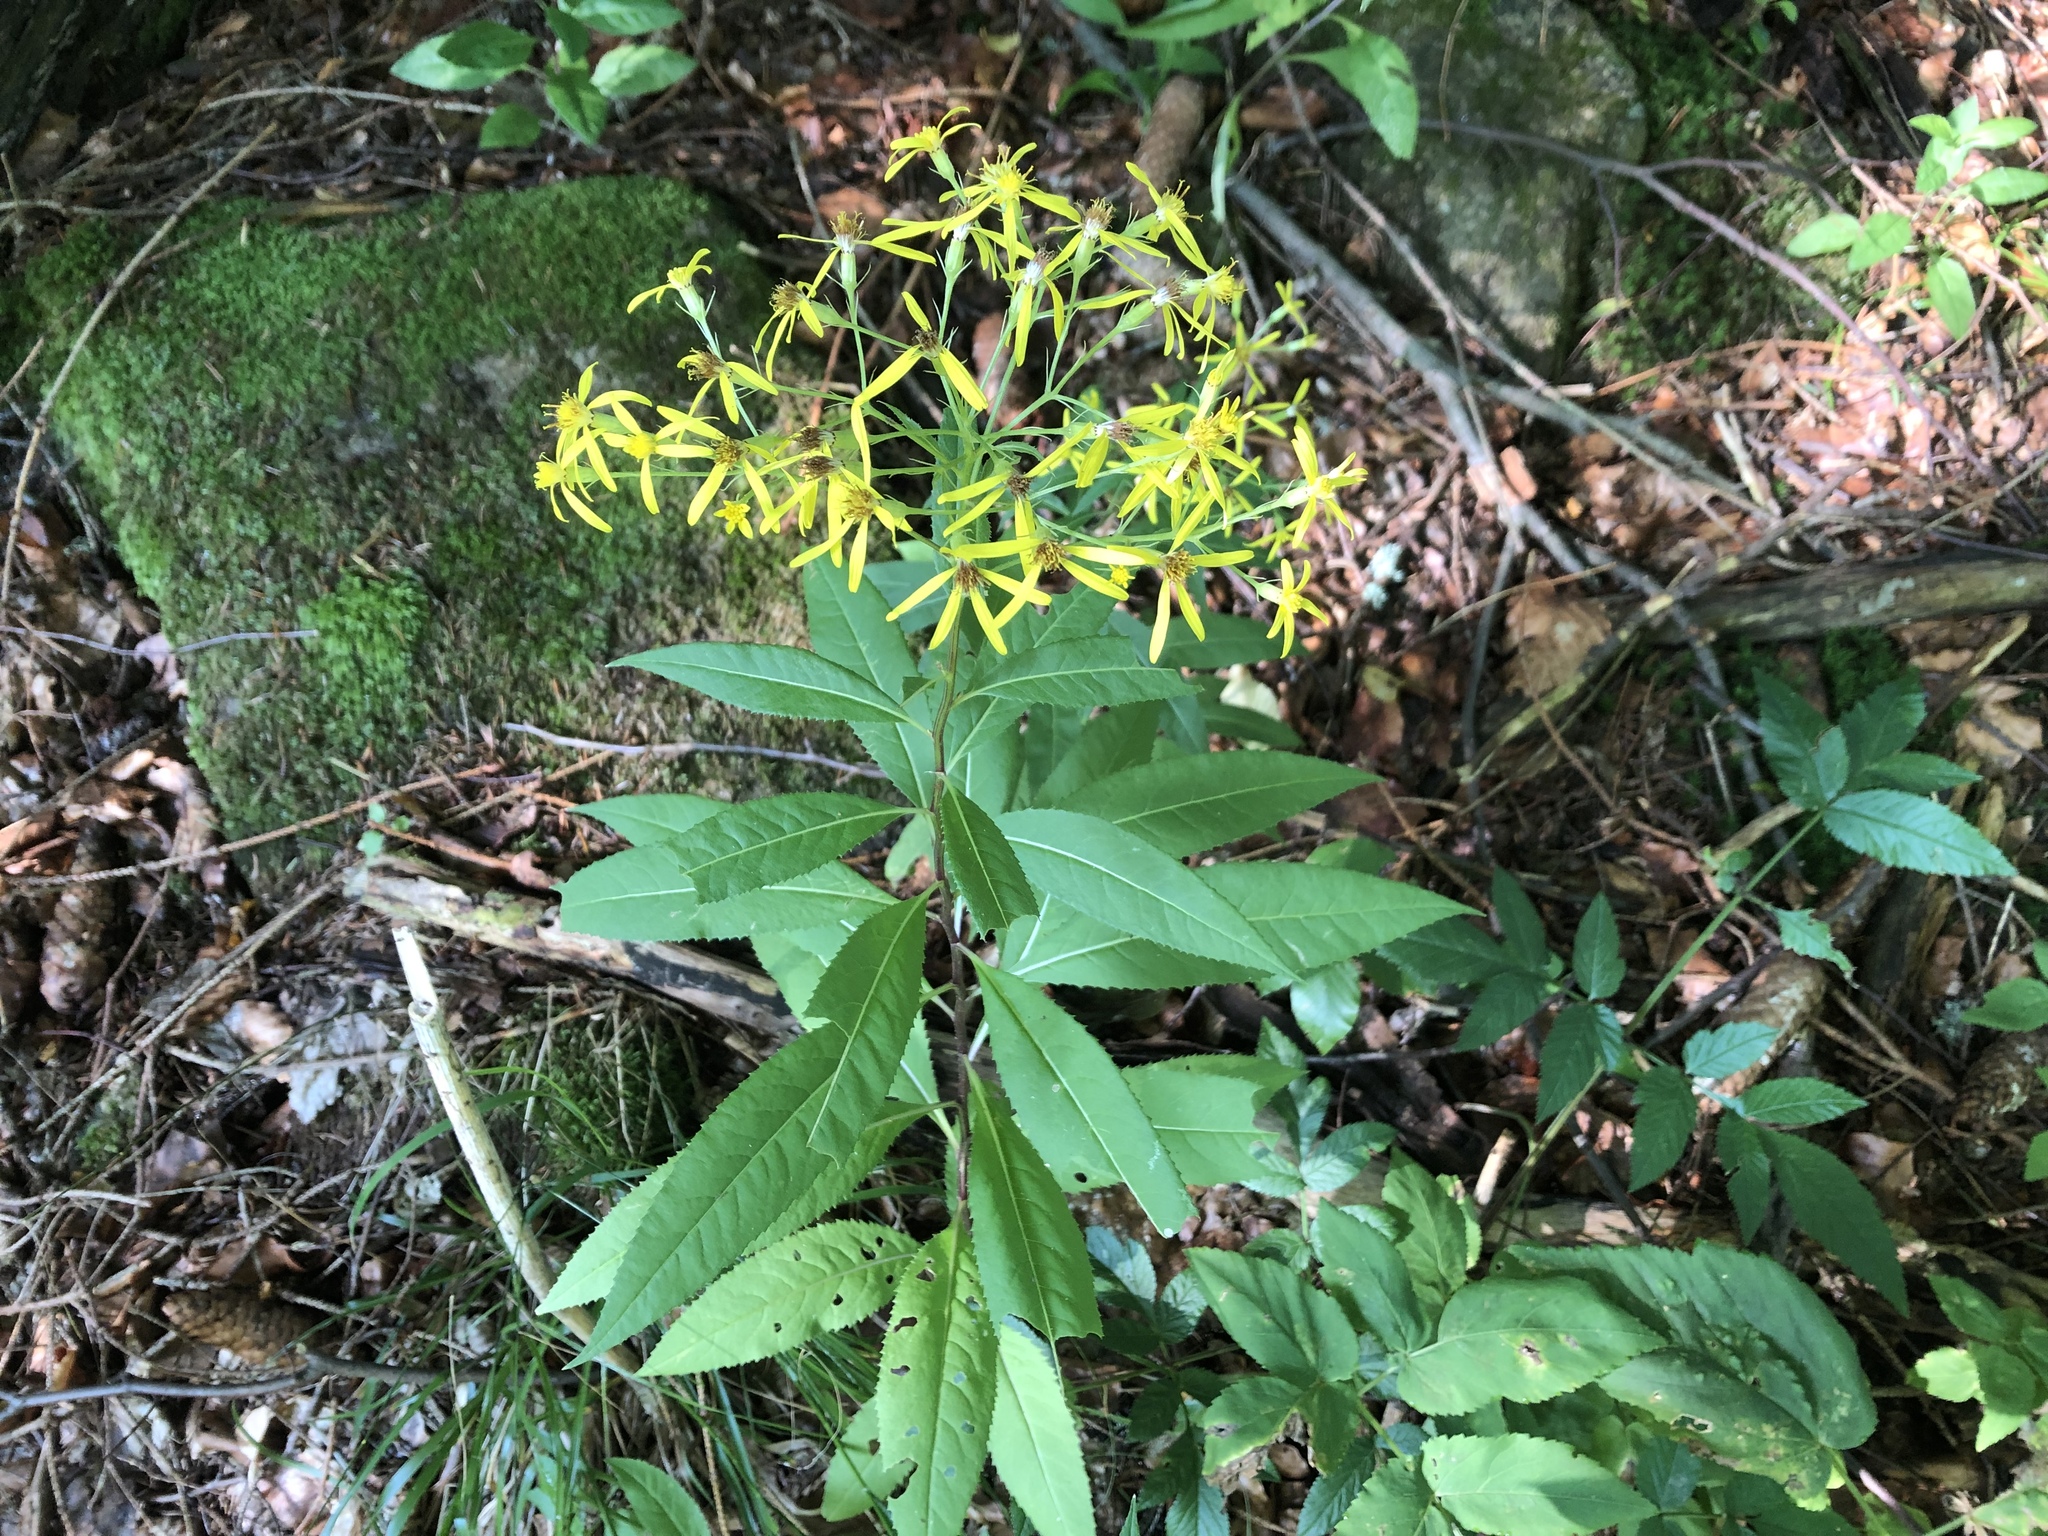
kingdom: Plantae
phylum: Tracheophyta
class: Magnoliopsida
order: Asterales
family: Asteraceae
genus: Senecio
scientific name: Senecio ovatus
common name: Wood ragwort
